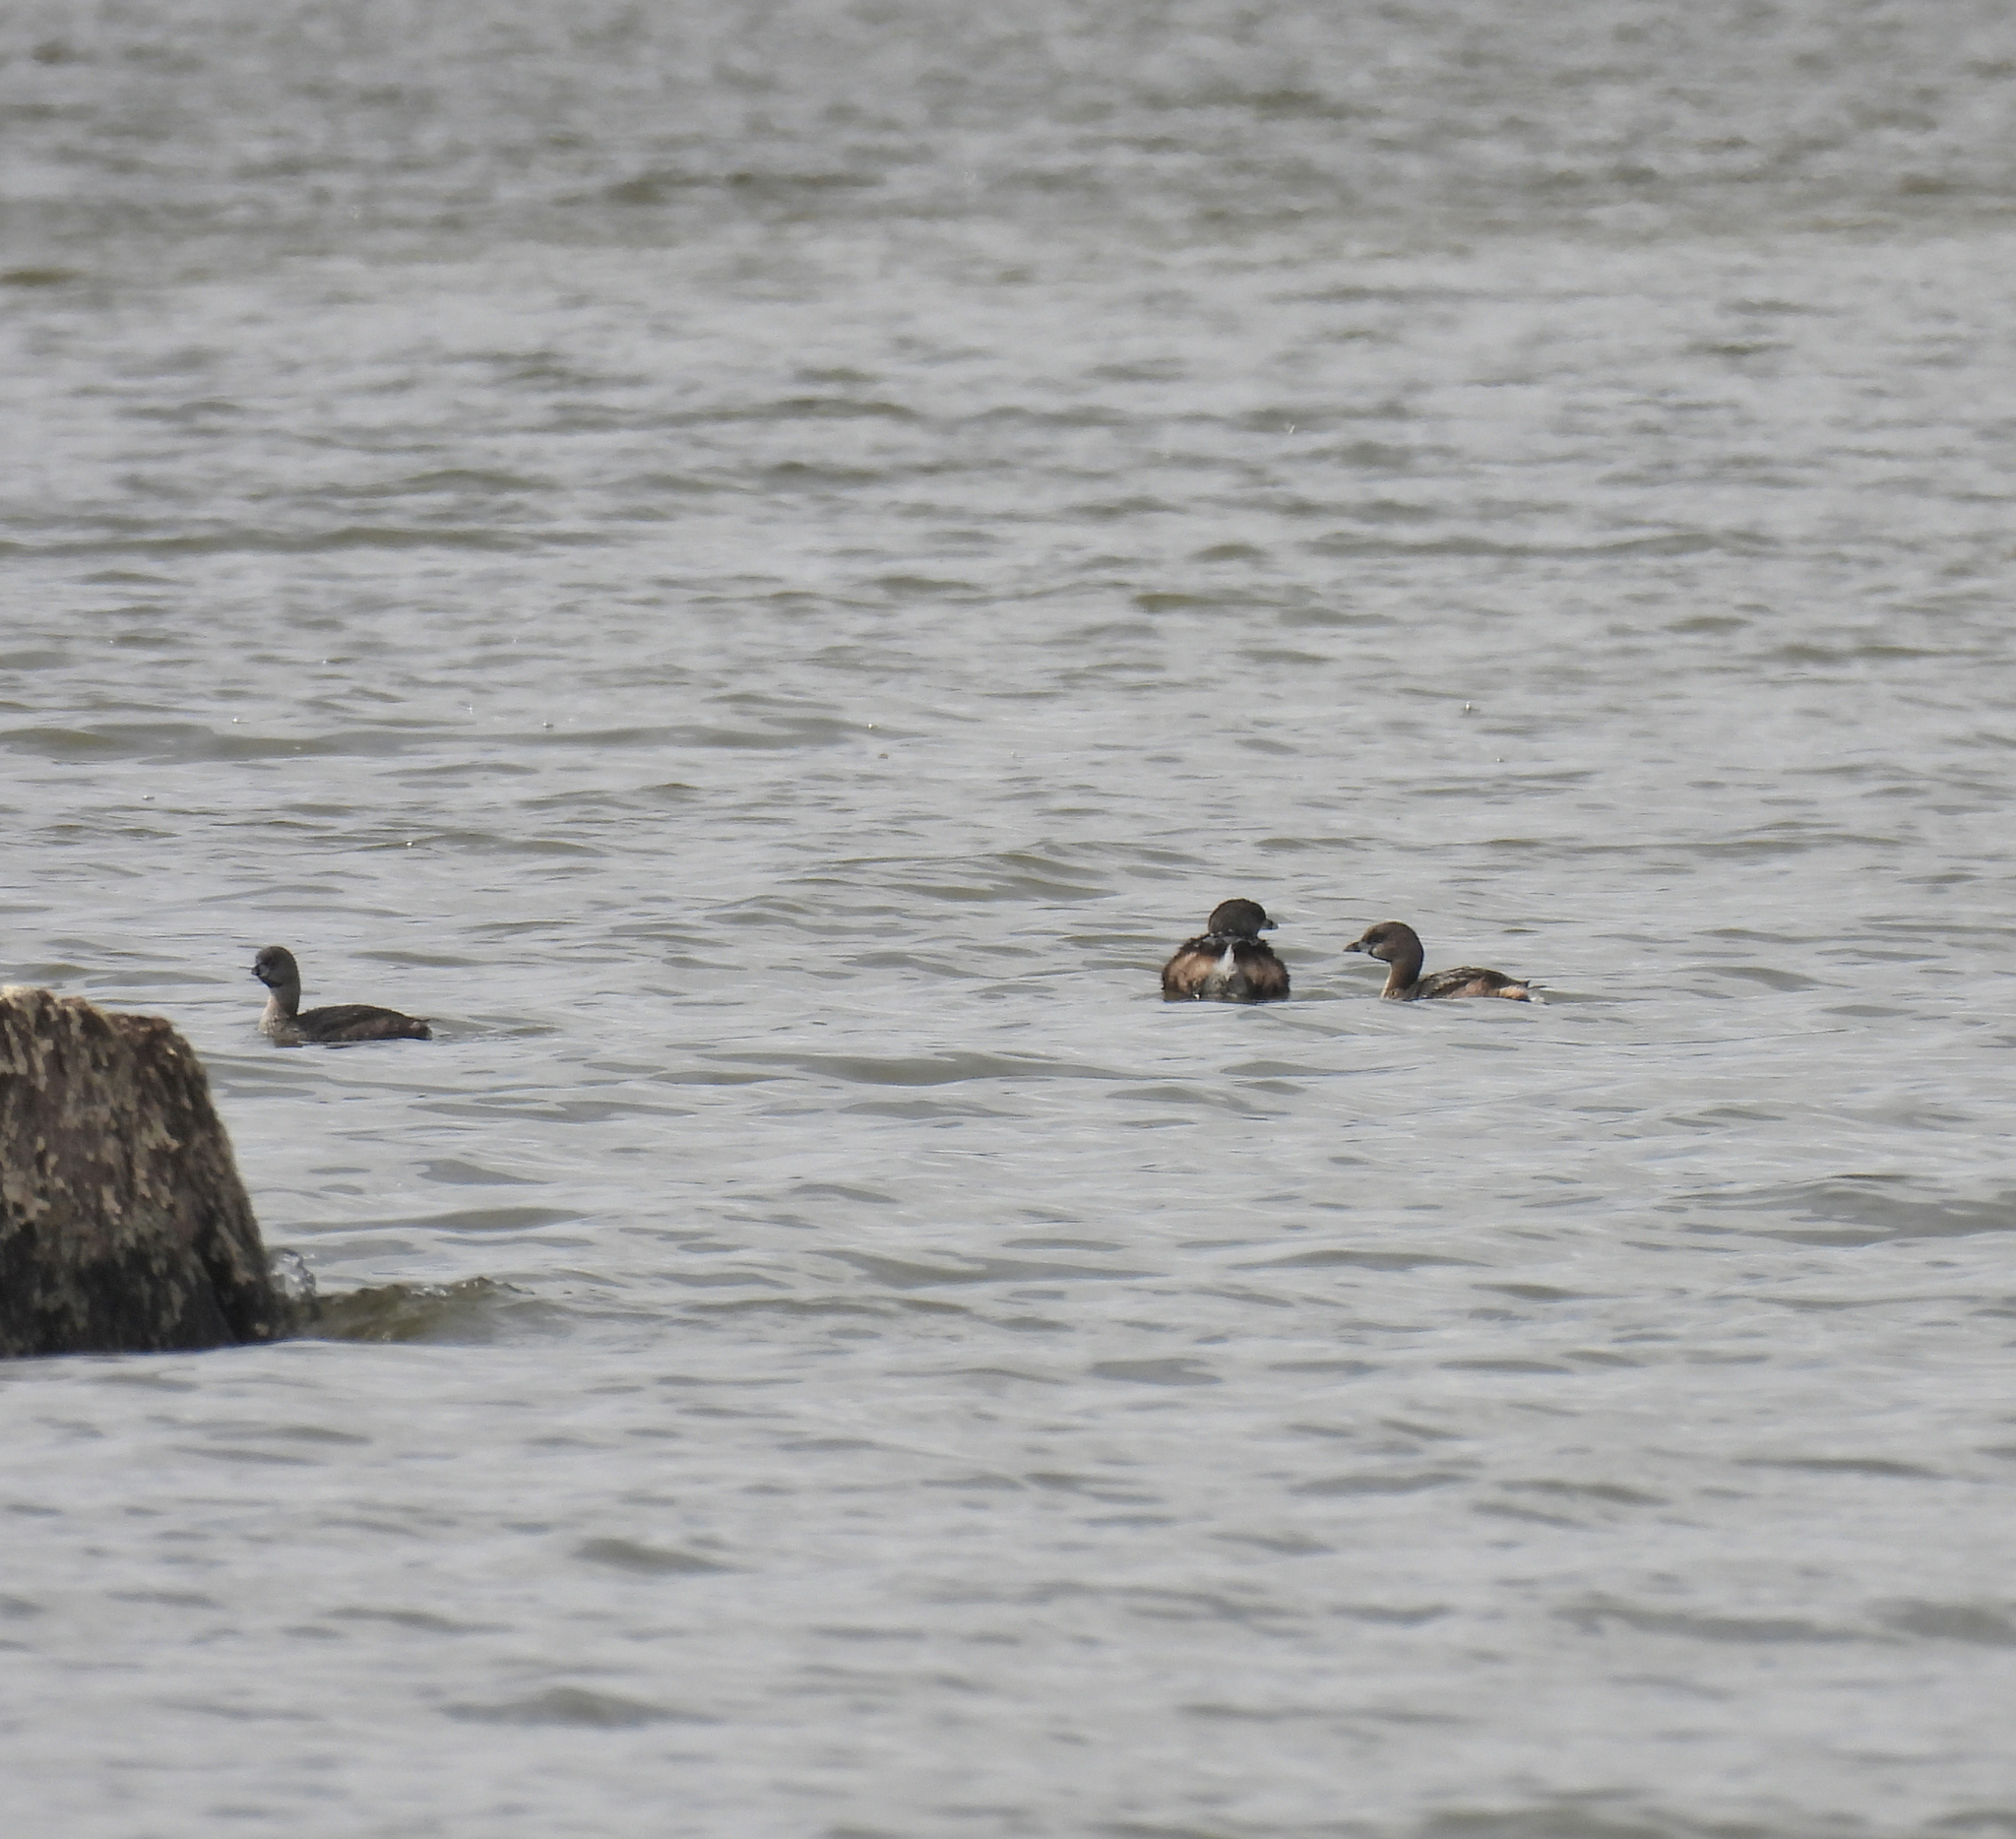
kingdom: Animalia
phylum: Chordata
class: Aves
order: Podicipediformes
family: Podicipedidae
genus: Podilymbus
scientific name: Podilymbus podiceps
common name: Pied-billed grebe
